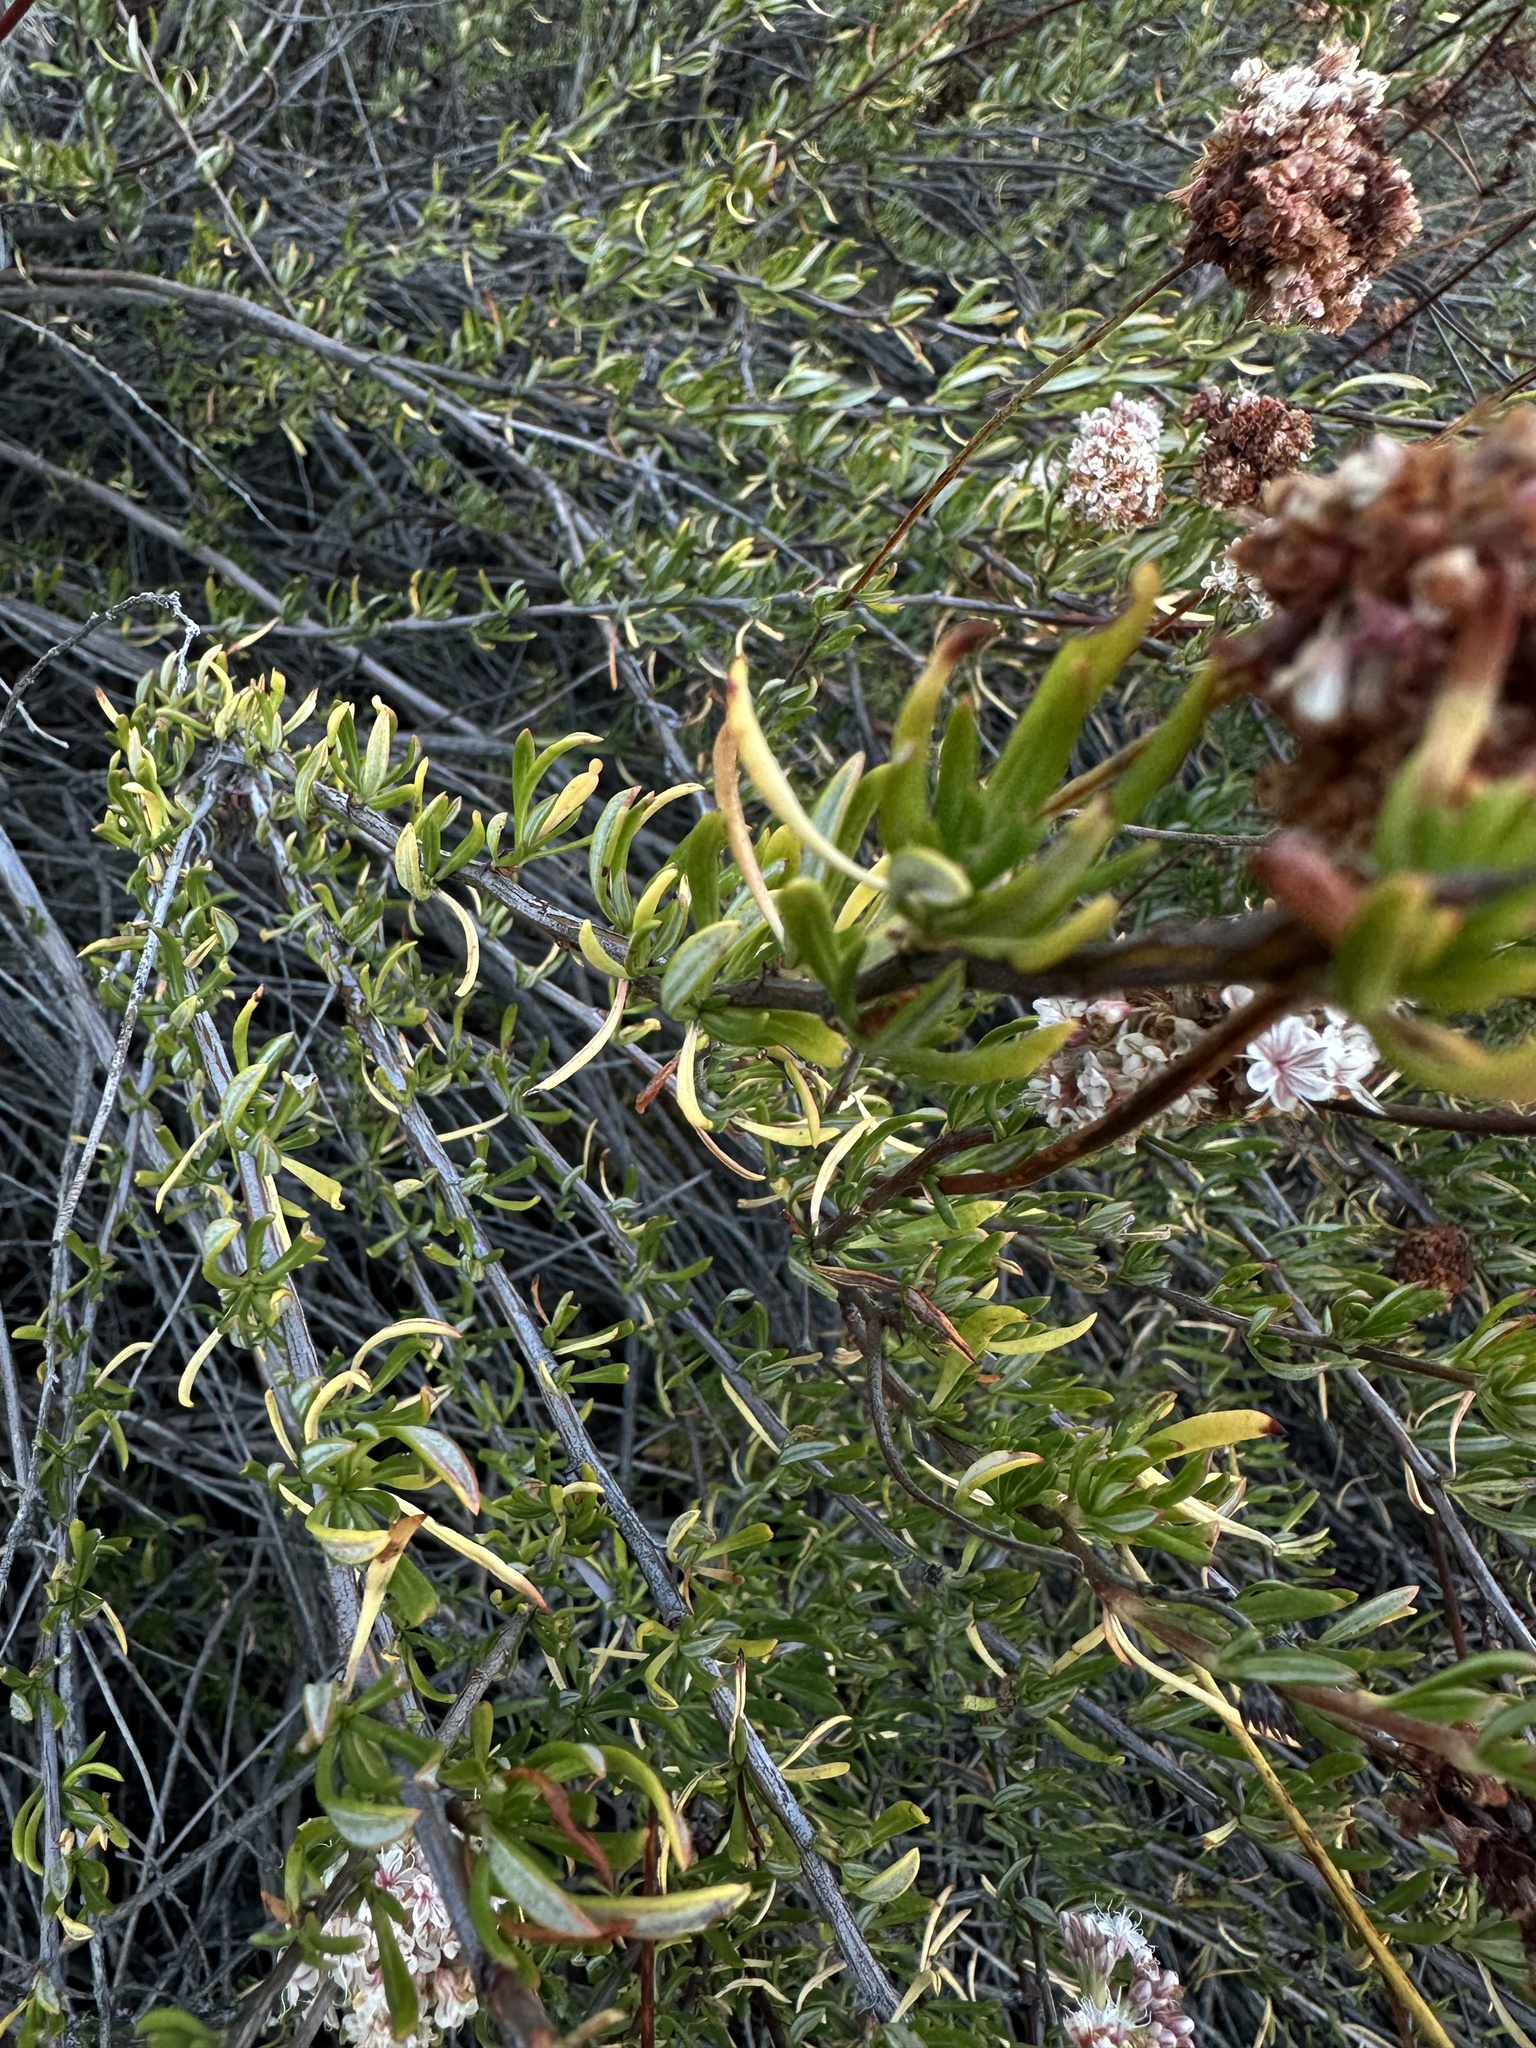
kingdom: Plantae
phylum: Tracheophyta
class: Magnoliopsida
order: Caryophyllales
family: Polygonaceae
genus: Eriogonum
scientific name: Eriogonum fasciculatum
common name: California wild buckwheat
